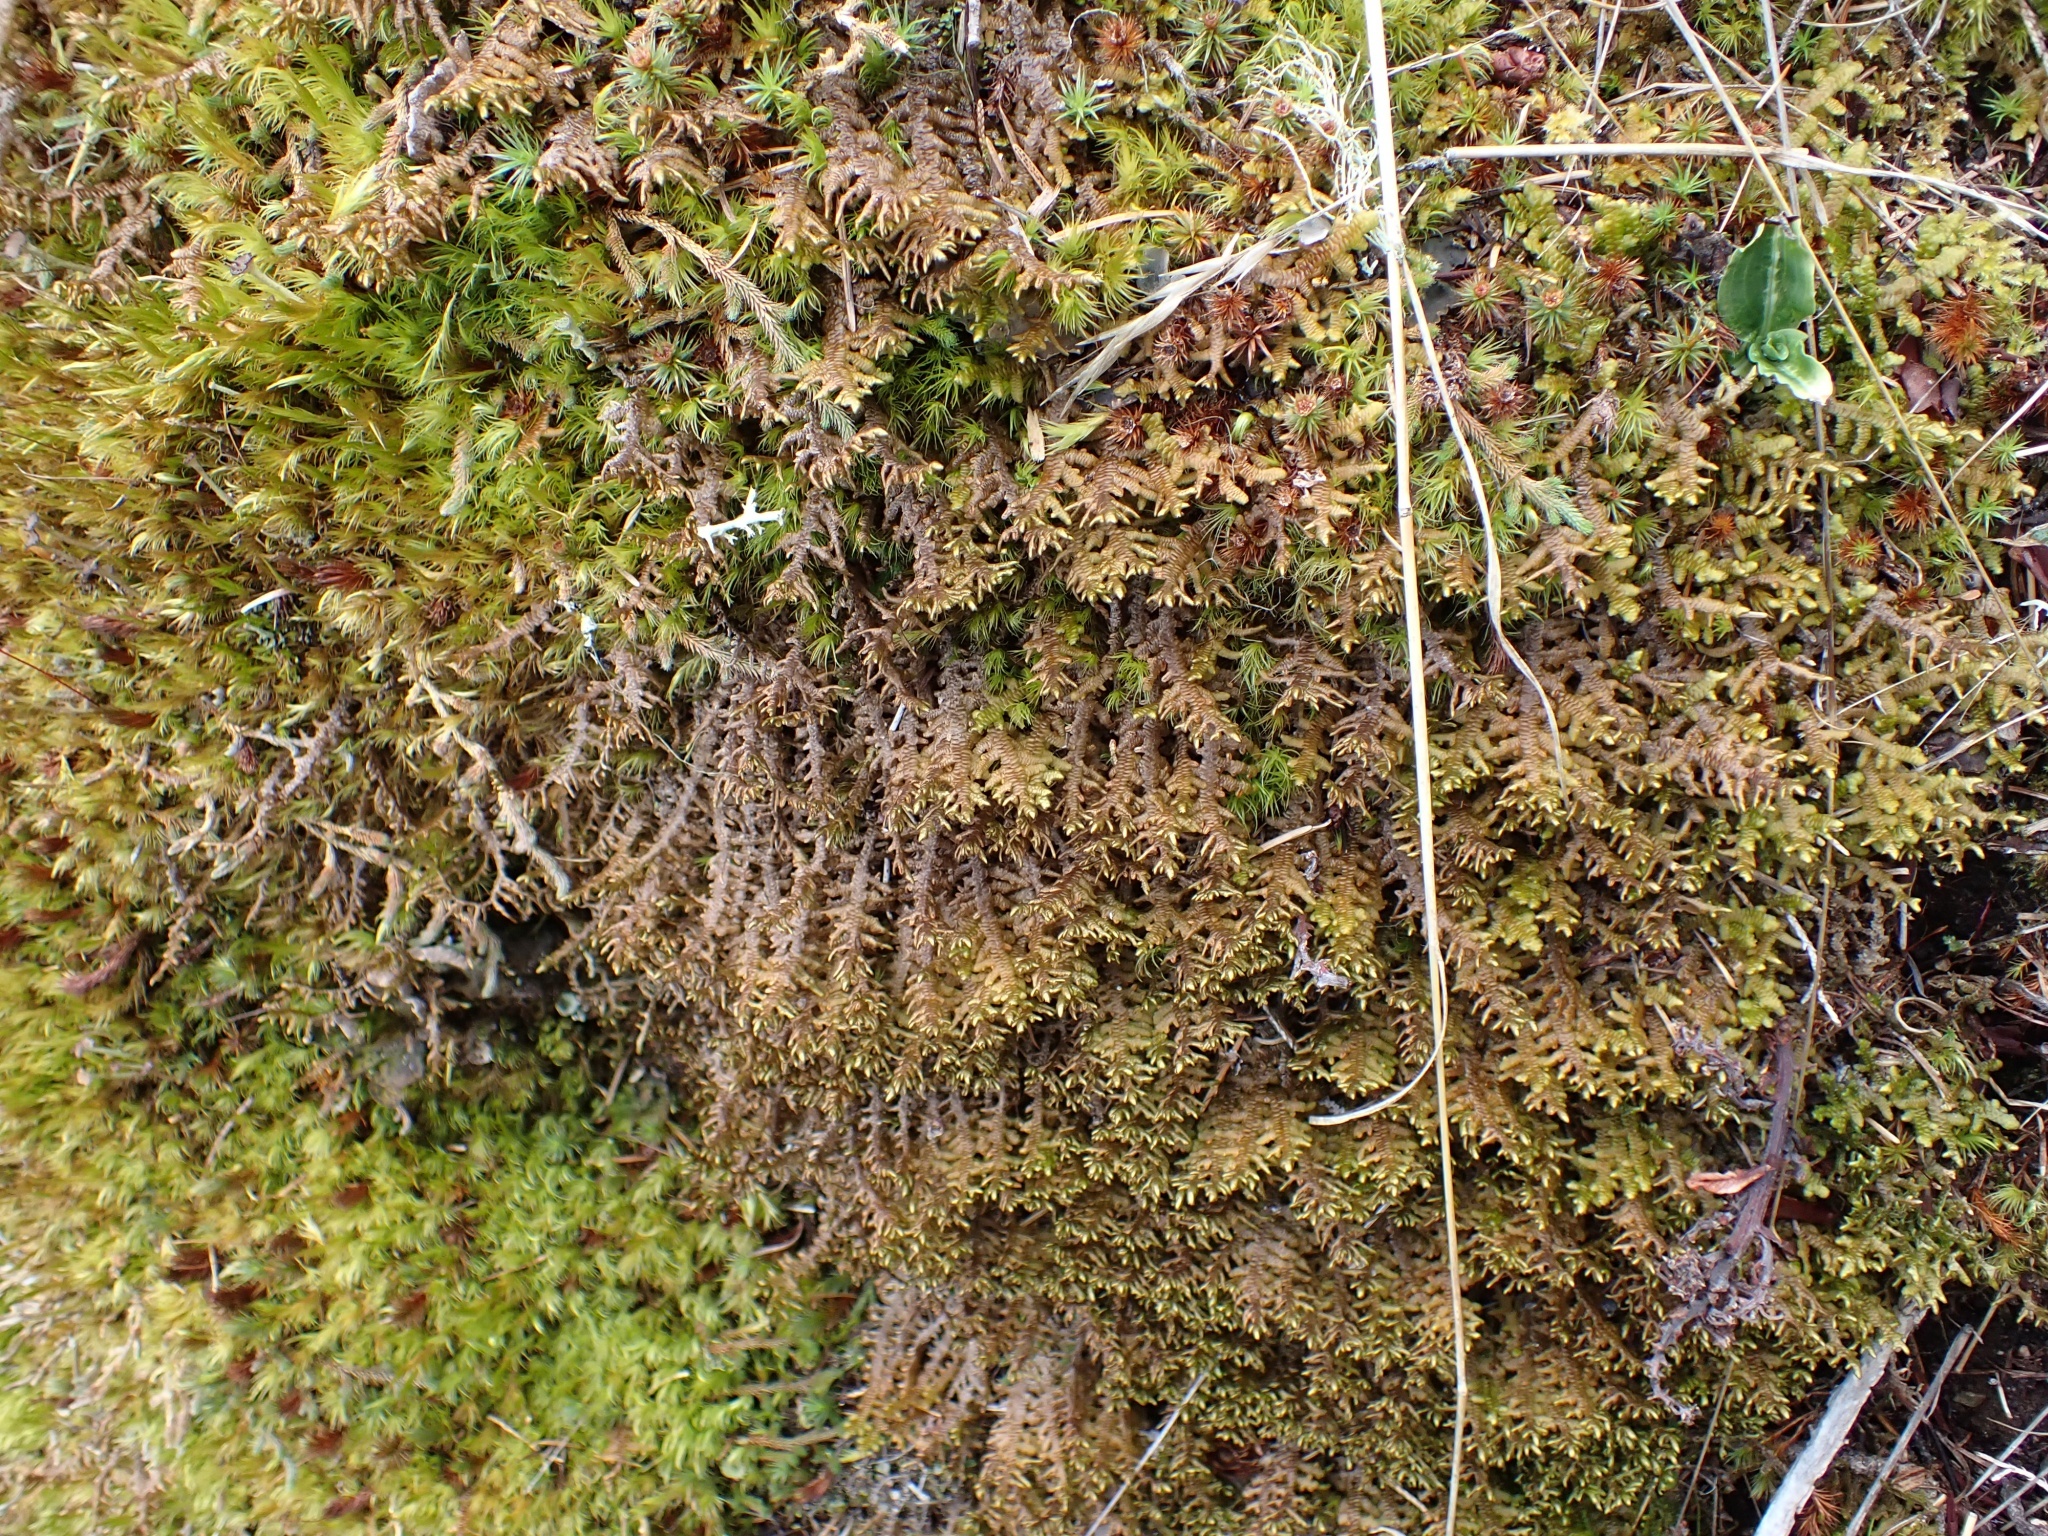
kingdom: Plantae
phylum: Marchantiophyta
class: Jungermanniopsida
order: Porellales
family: Porellaceae
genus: Porella
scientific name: Porella navicularis
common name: Tree ruffle liverwort
